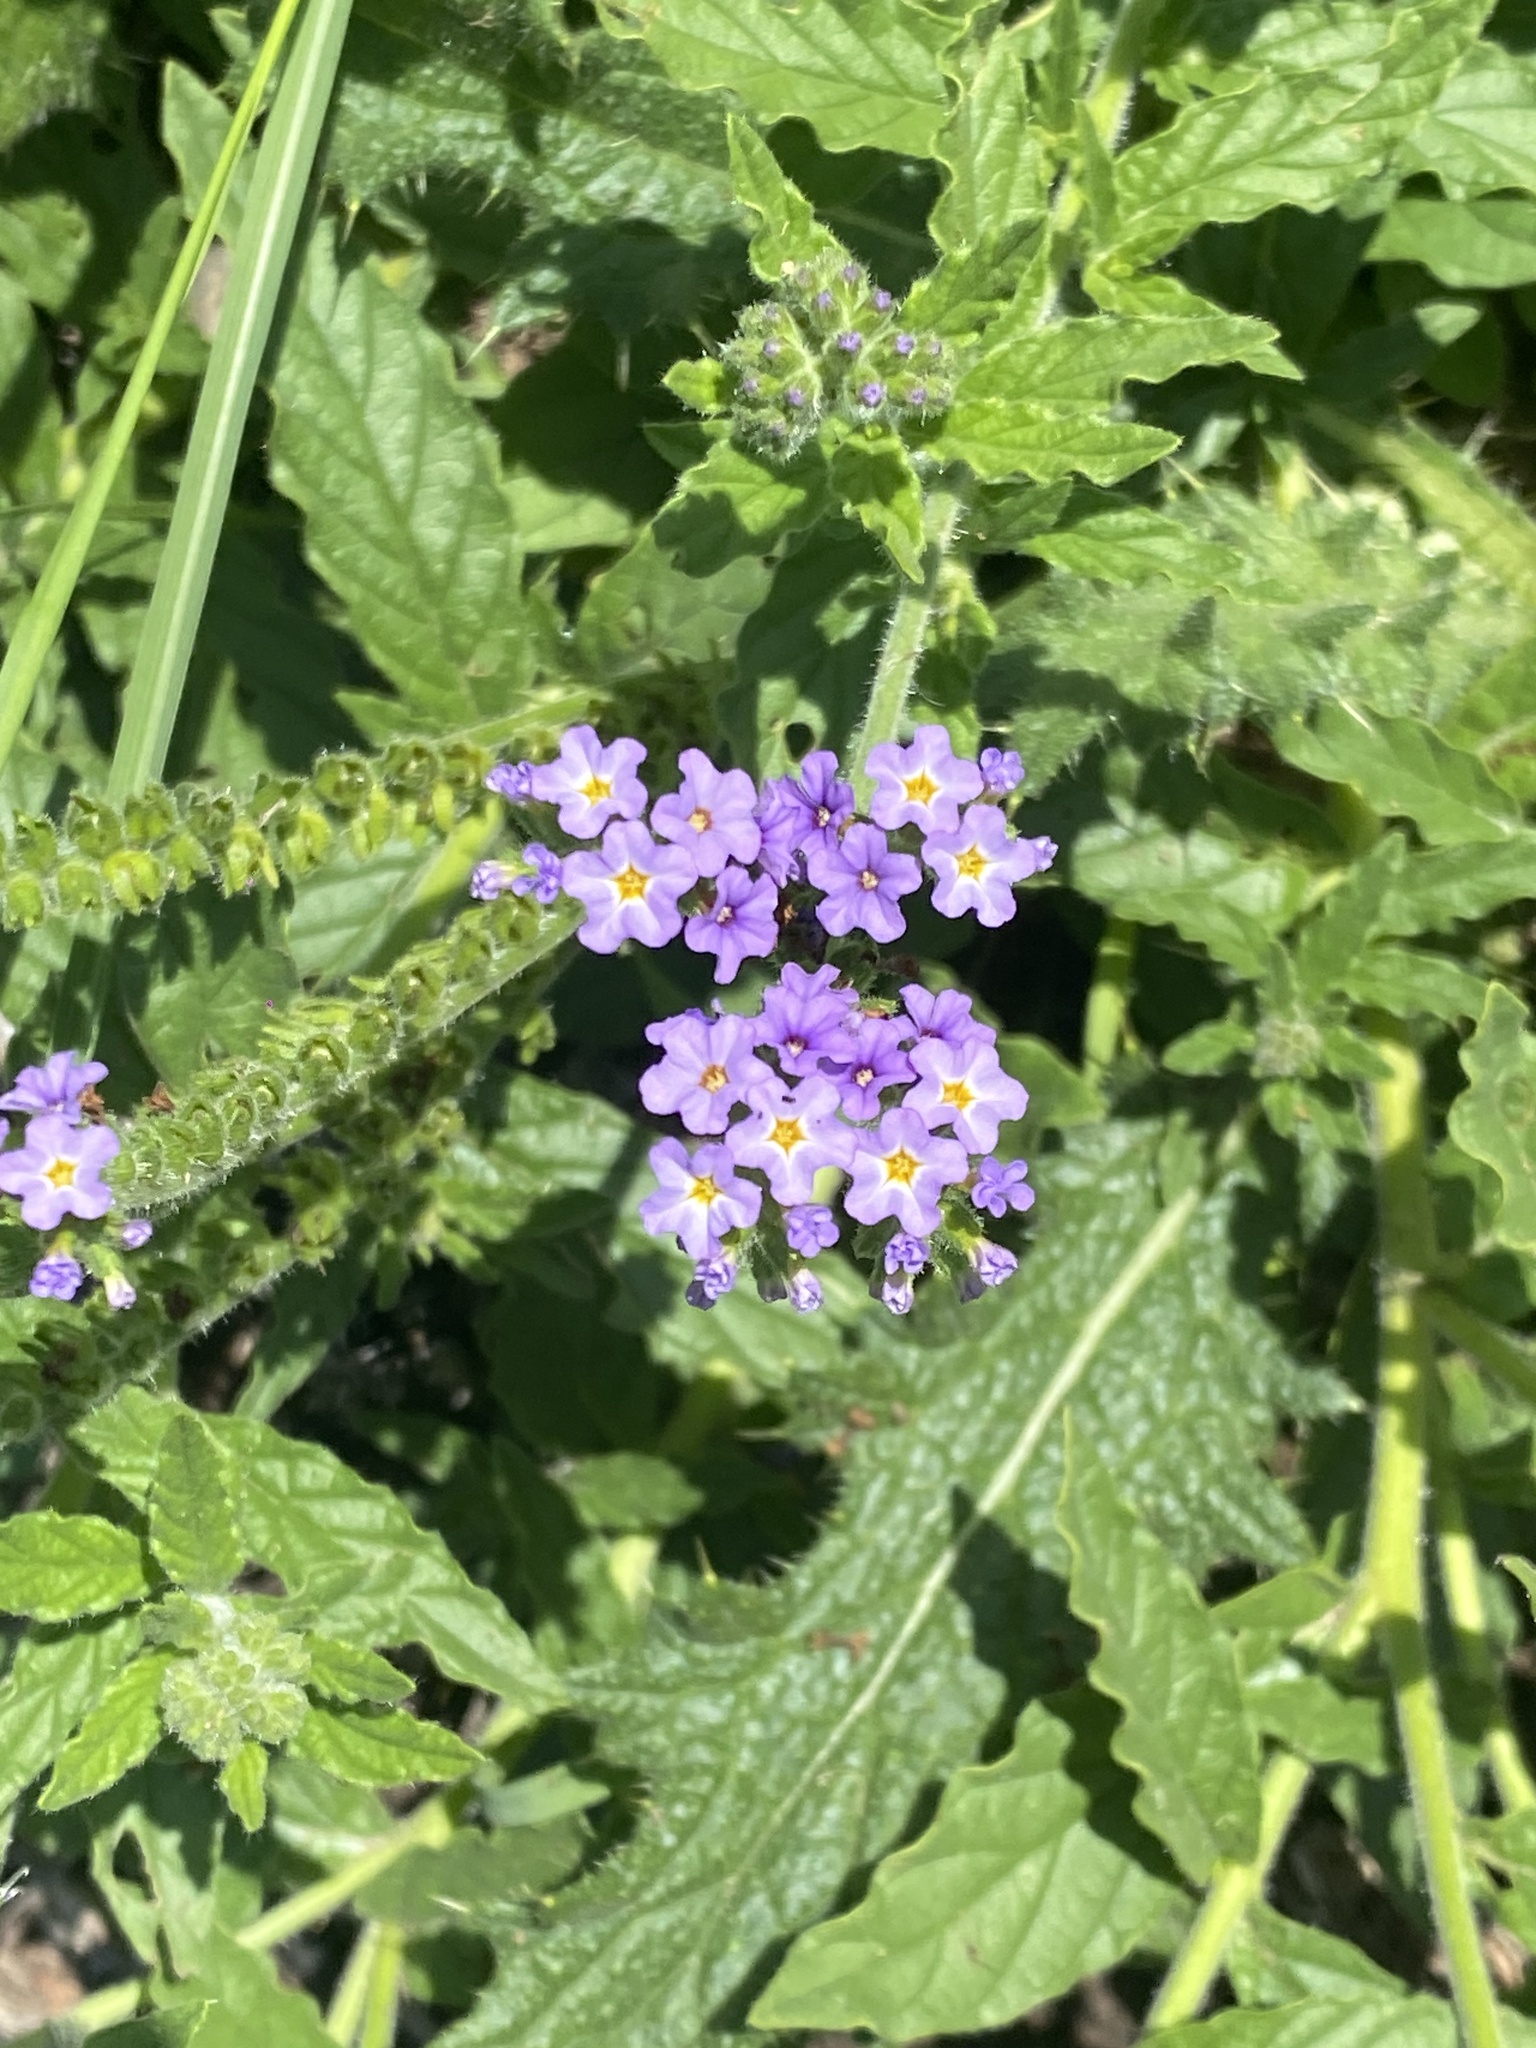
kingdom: Plantae
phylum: Tracheophyta
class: Magnoliopsida
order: Boraginales
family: Heliotropiaceae
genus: Heliotropium
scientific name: Heliotropium amplexicaule
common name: Clasping heliotrope
